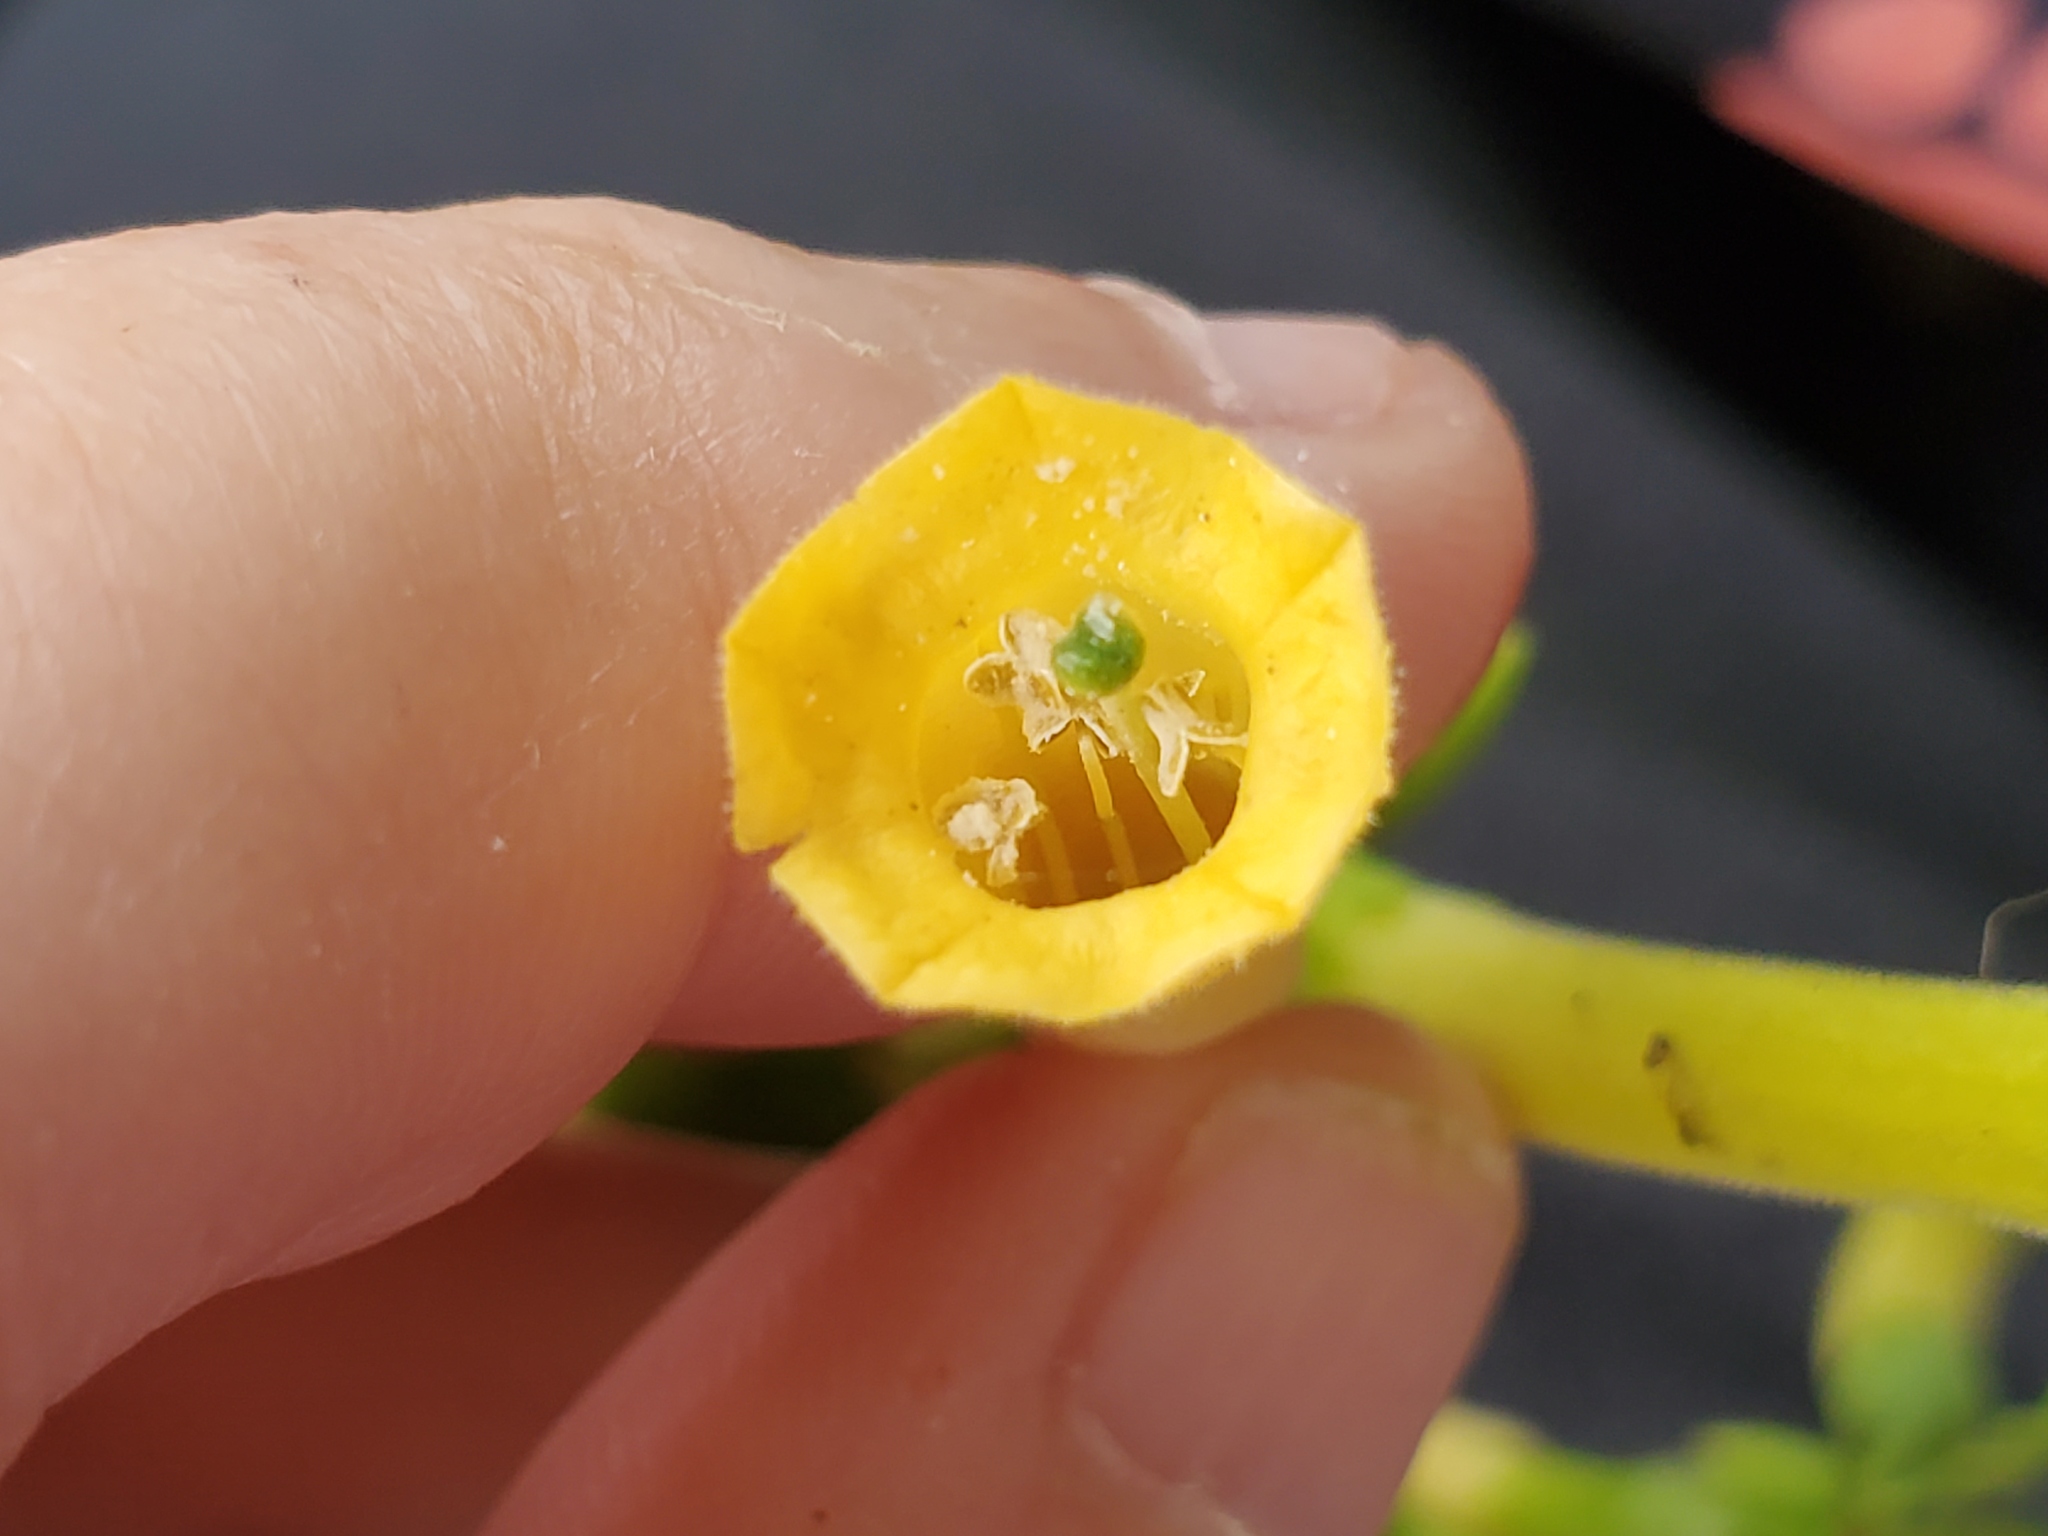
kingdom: Plantae
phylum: Tracheophyta
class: Magnoliopsida
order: Solanales
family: Solanaceae
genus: Nicotiana
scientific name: Nicotiana glauca
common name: Tree tobacco
